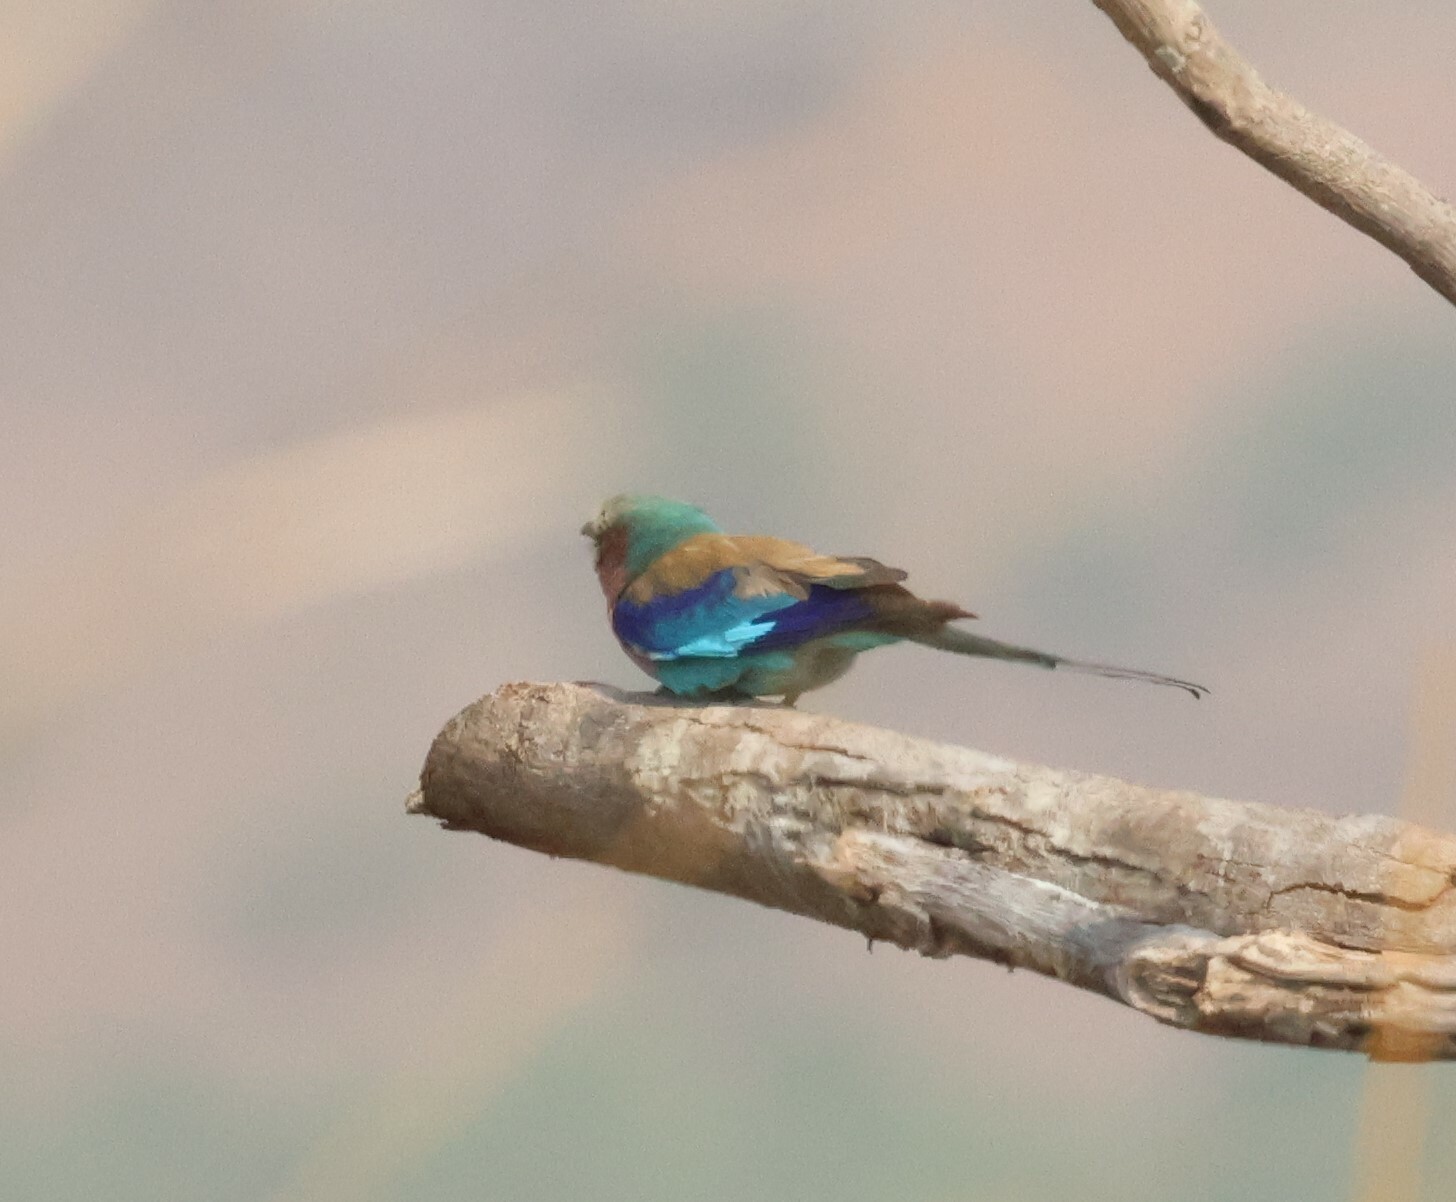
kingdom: Animalia
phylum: Chordata
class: Aves
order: Coraciiformes
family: Coraciidae
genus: Coracias
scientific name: Coracias caudatus
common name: Lilac-breasted roller
